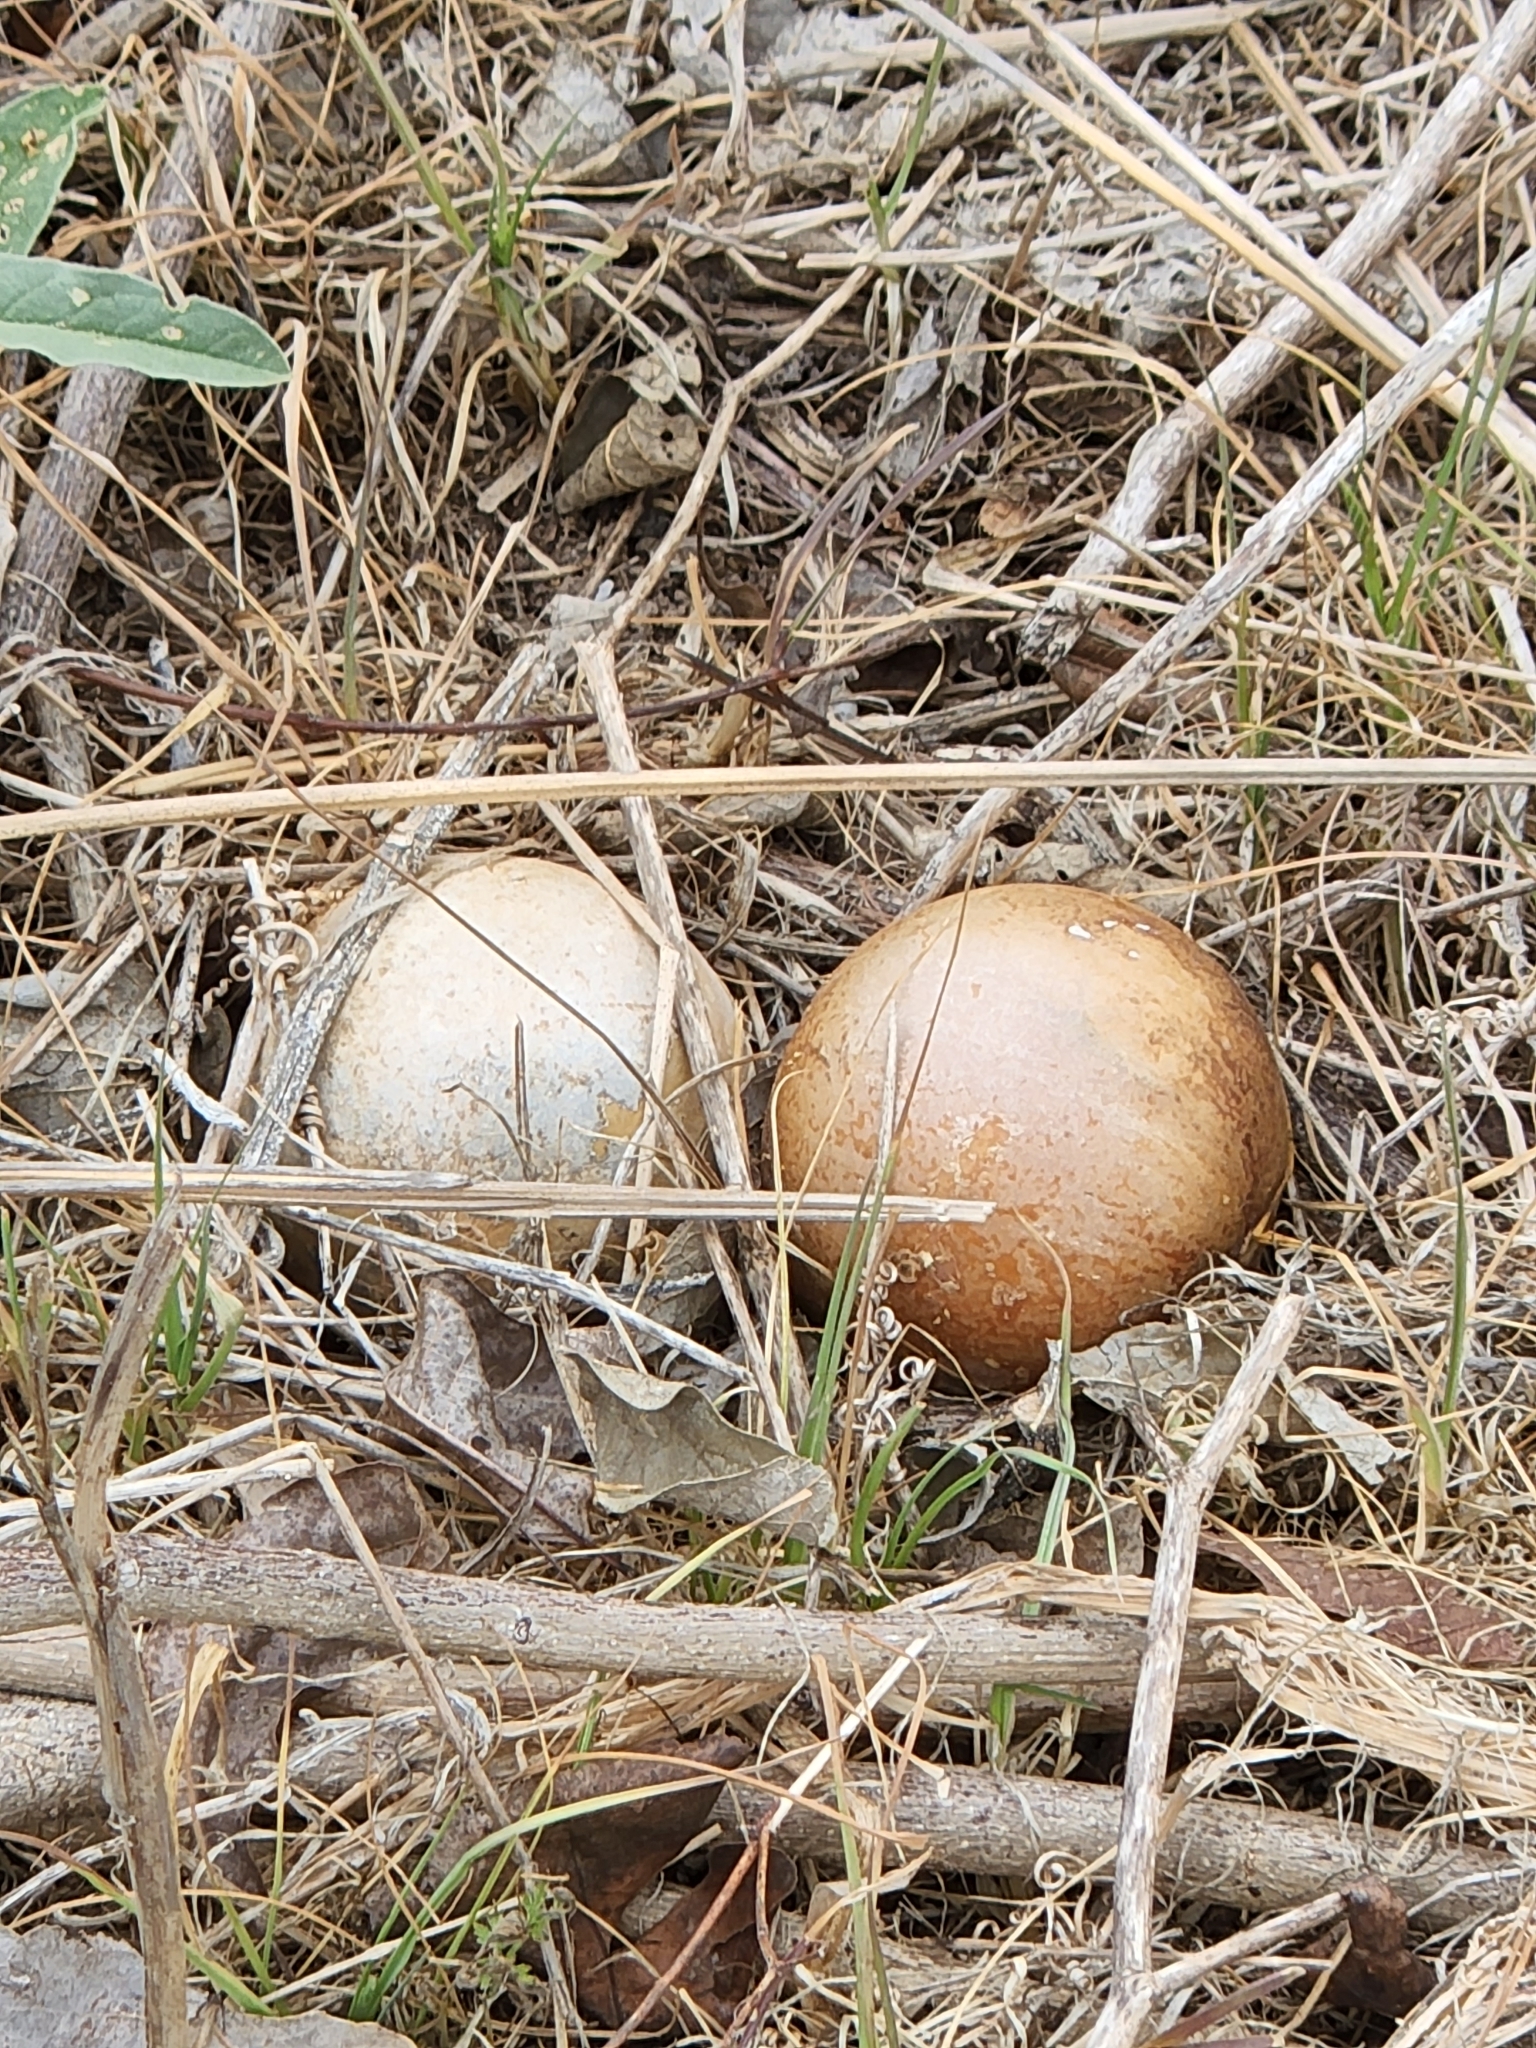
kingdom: Plantae
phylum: Tracheophyta
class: Magnoliopsida
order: Cucurbitales
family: Cucurbitaceae
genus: Cucurbita
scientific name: Cucurbita foetidissima
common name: Buffalo gourd
